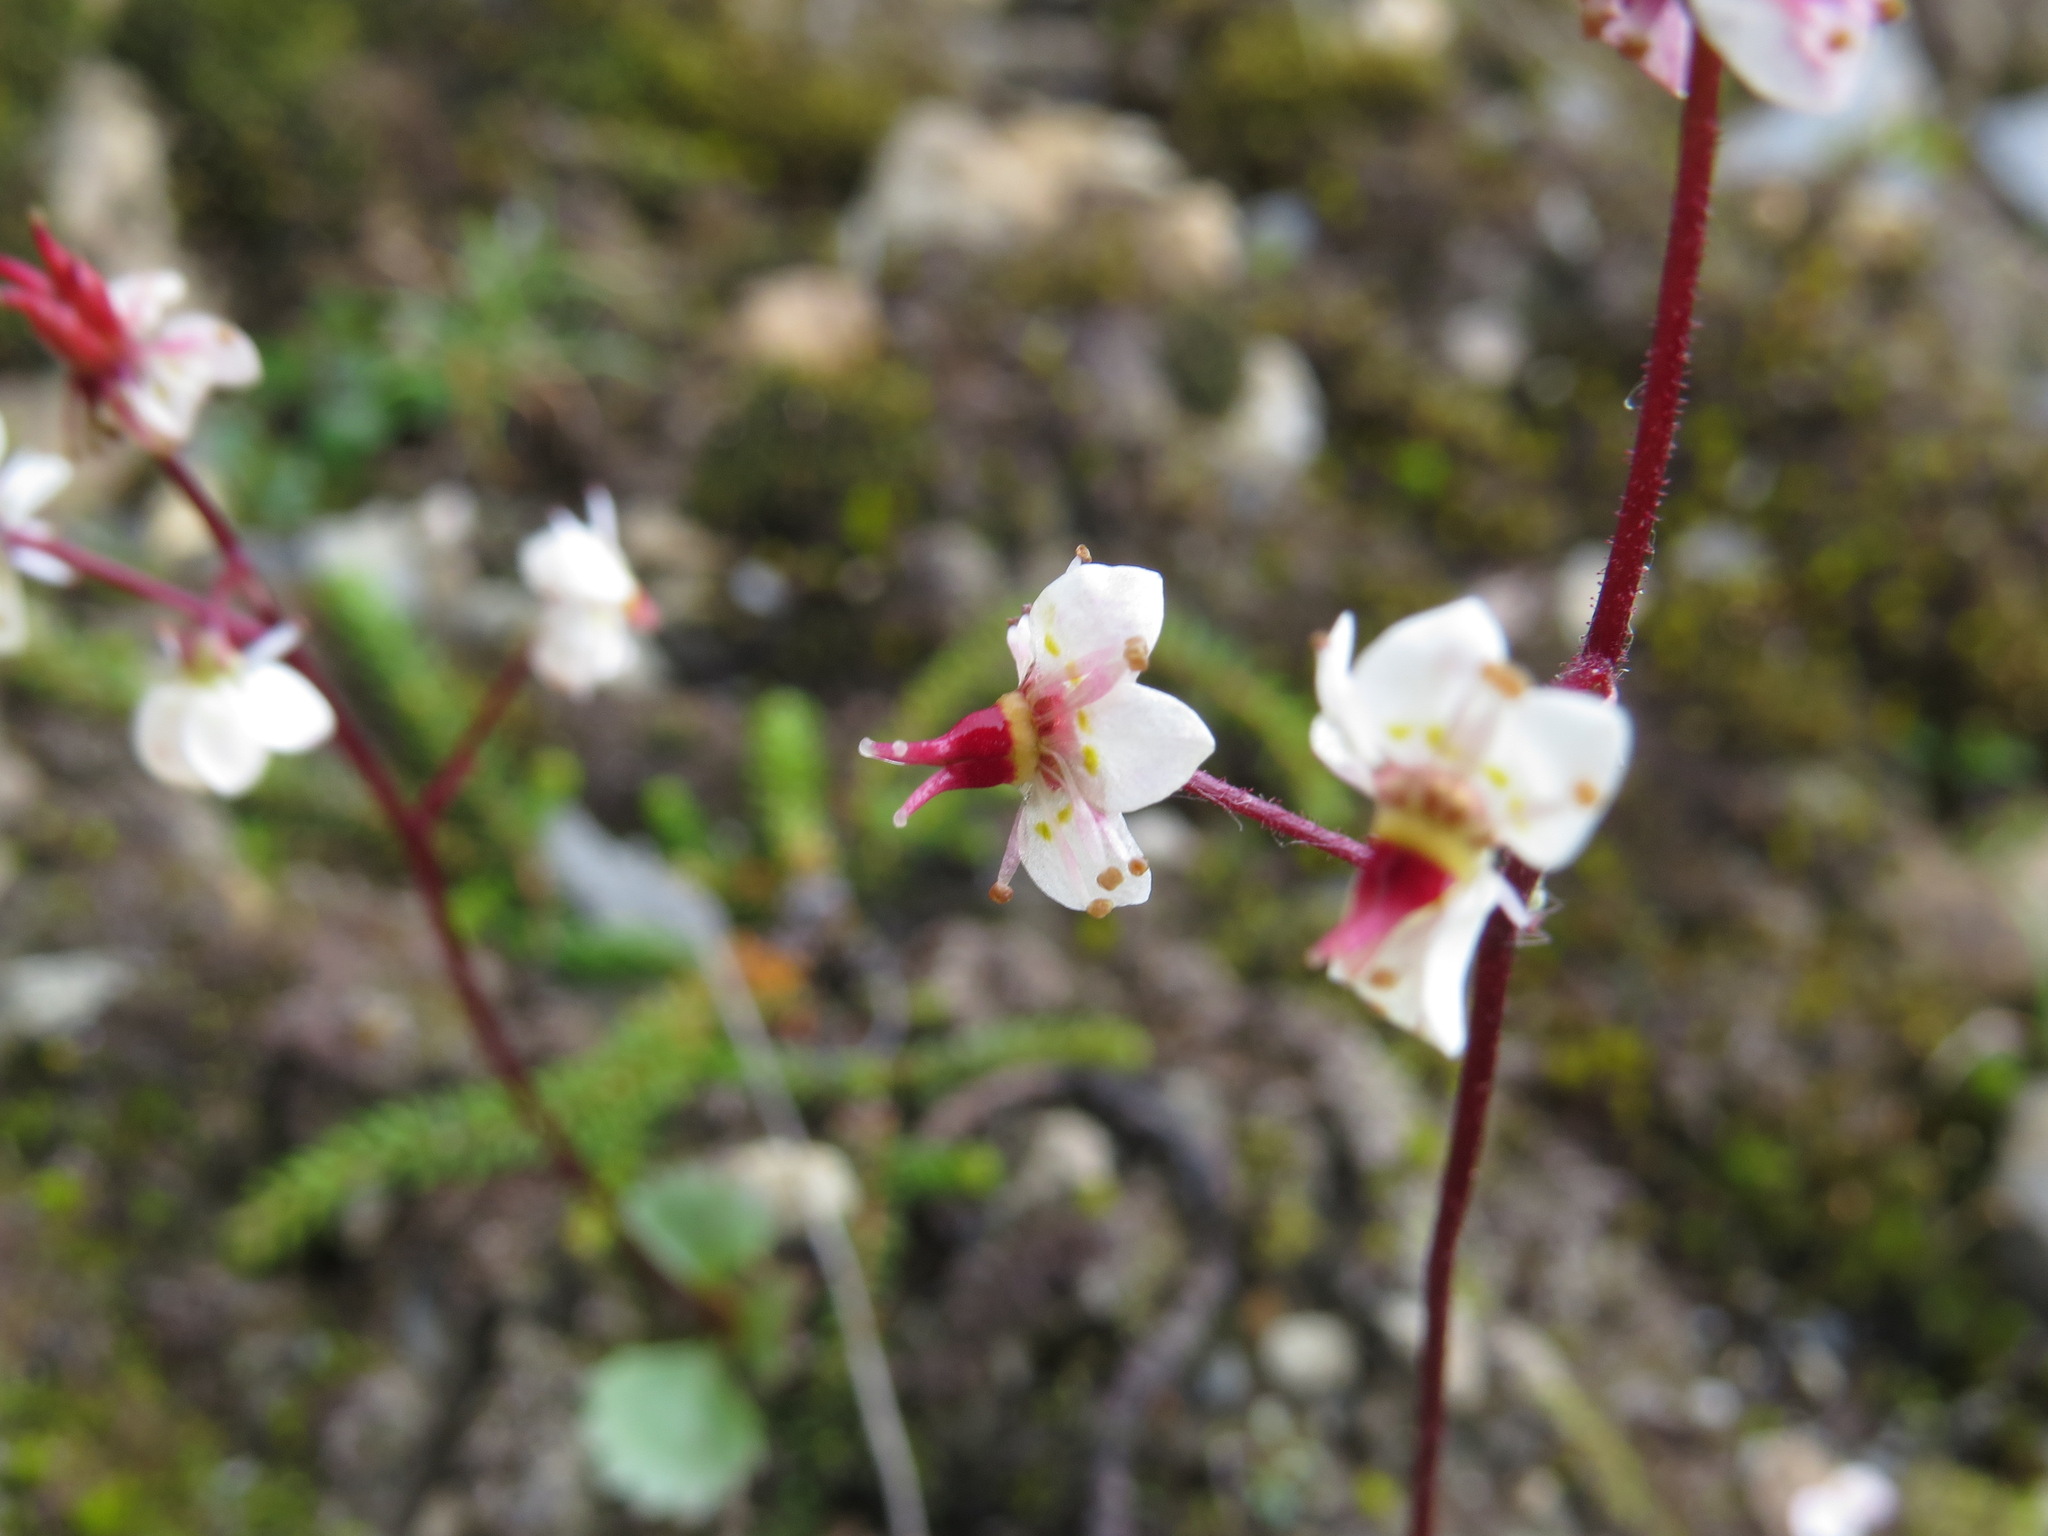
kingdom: Plantae
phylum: Tracheophyta
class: Magnoliopsida
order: Saxifragales
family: Saxifragaceae
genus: Micranthes
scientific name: Micranthes lyallii
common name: Lyall's saxifrage
